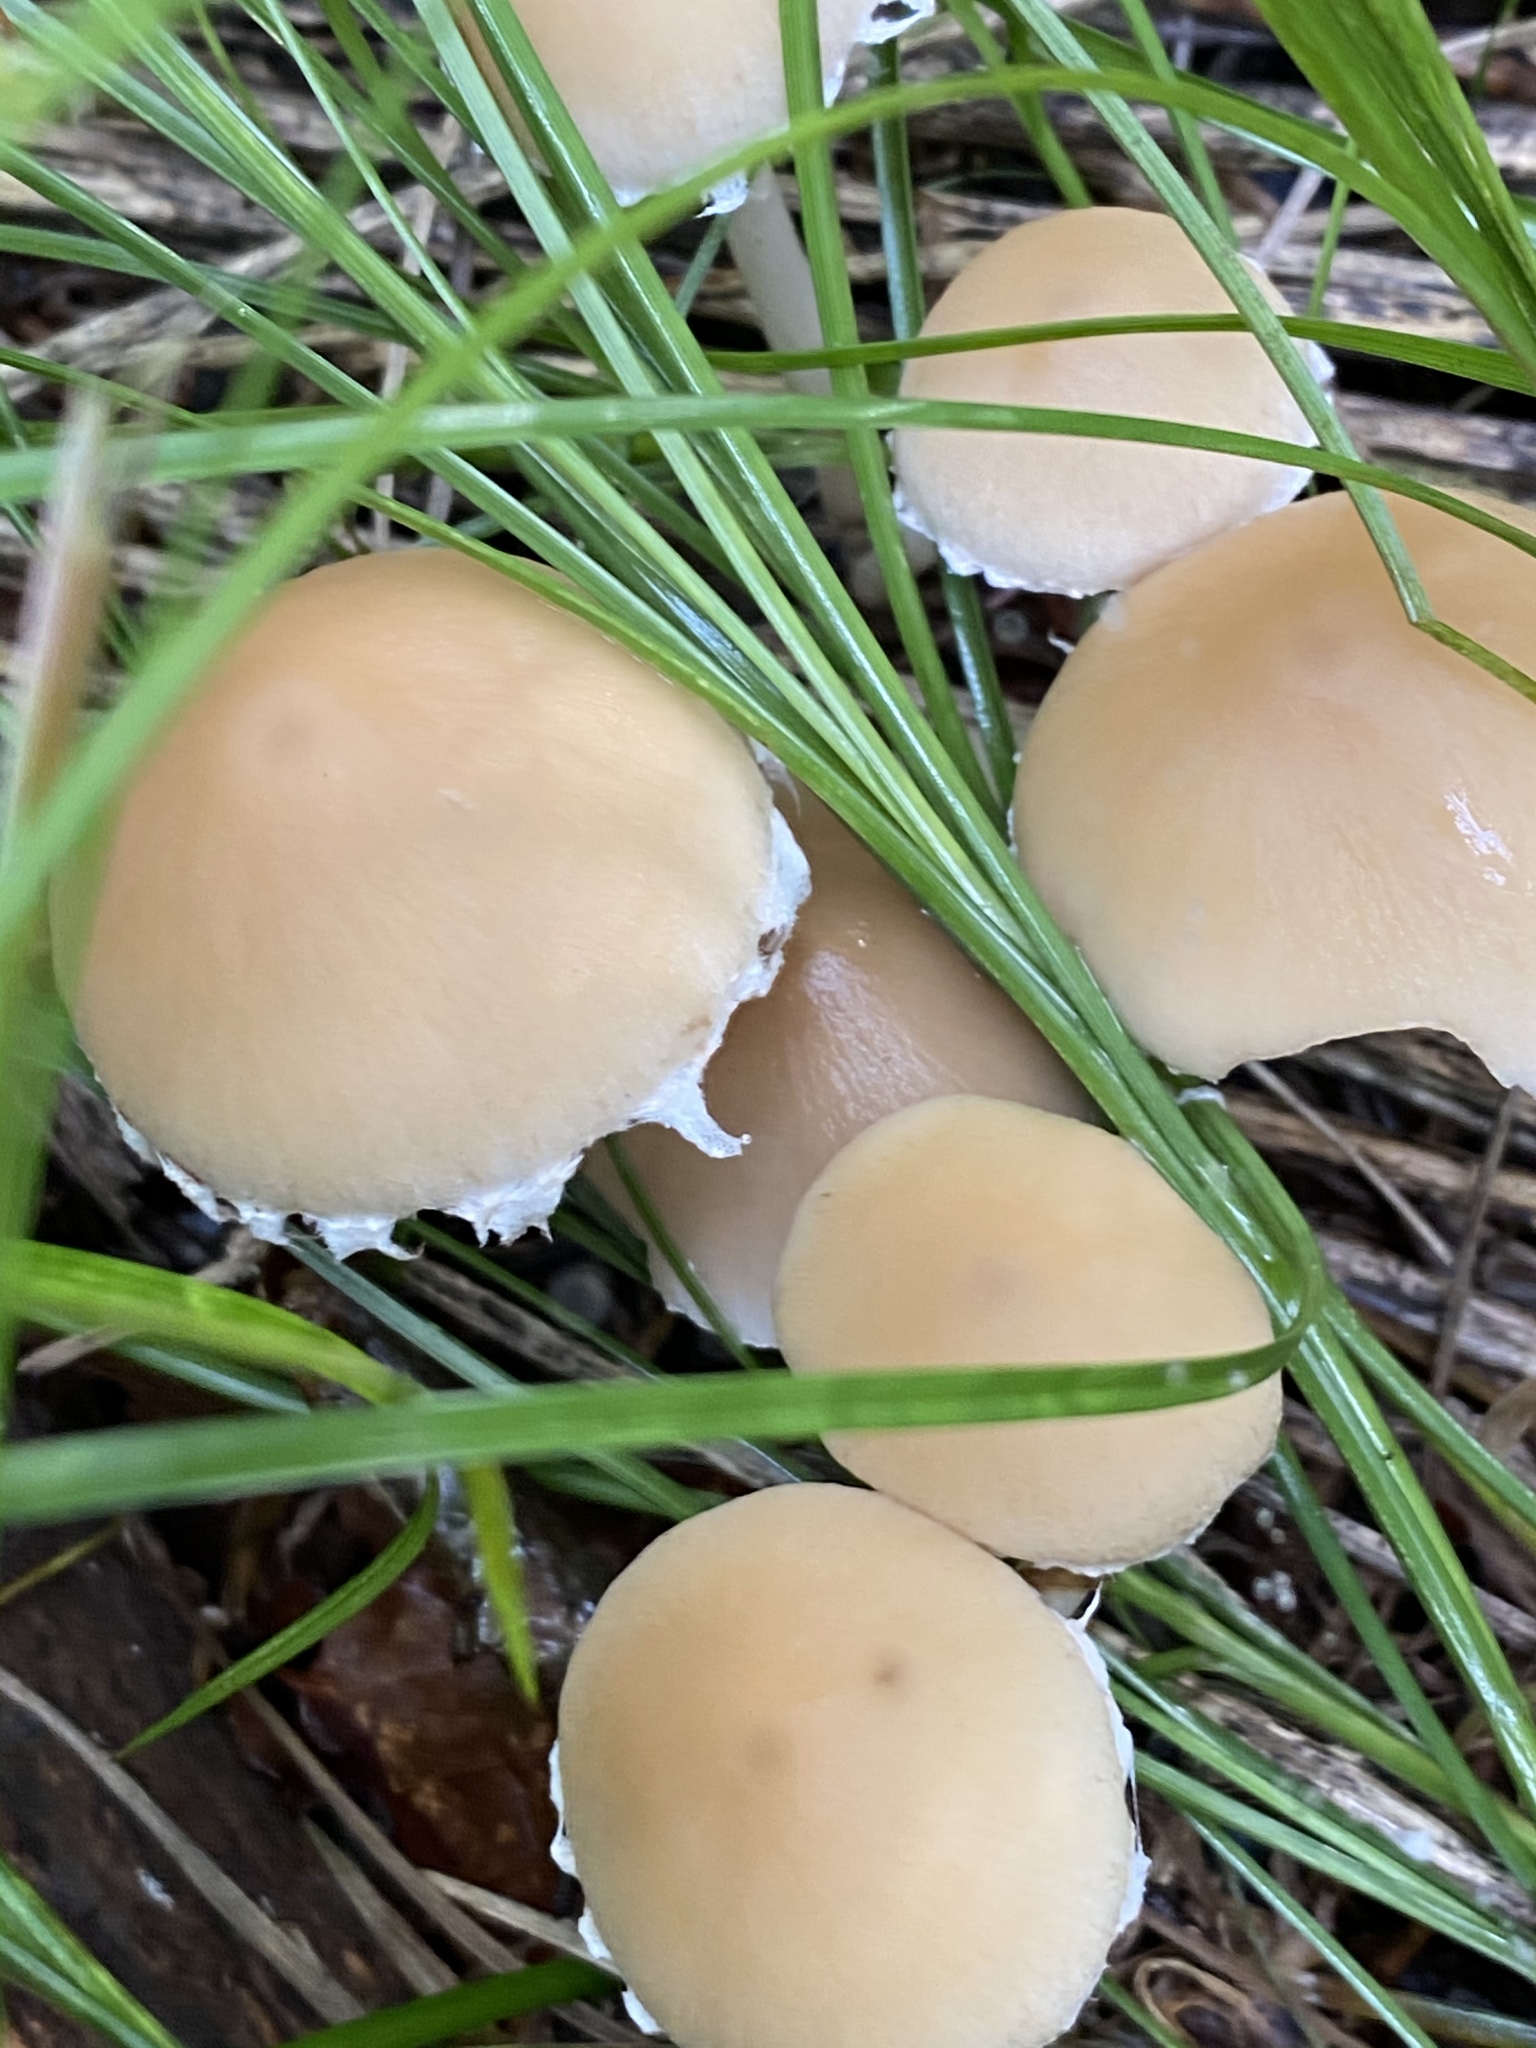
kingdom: Fungi
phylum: Basidiomycota
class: Agaricomycetes
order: Agaricales
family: Psathyrellaceae
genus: Candolleomyces
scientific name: Candolleomyces candolleanus
